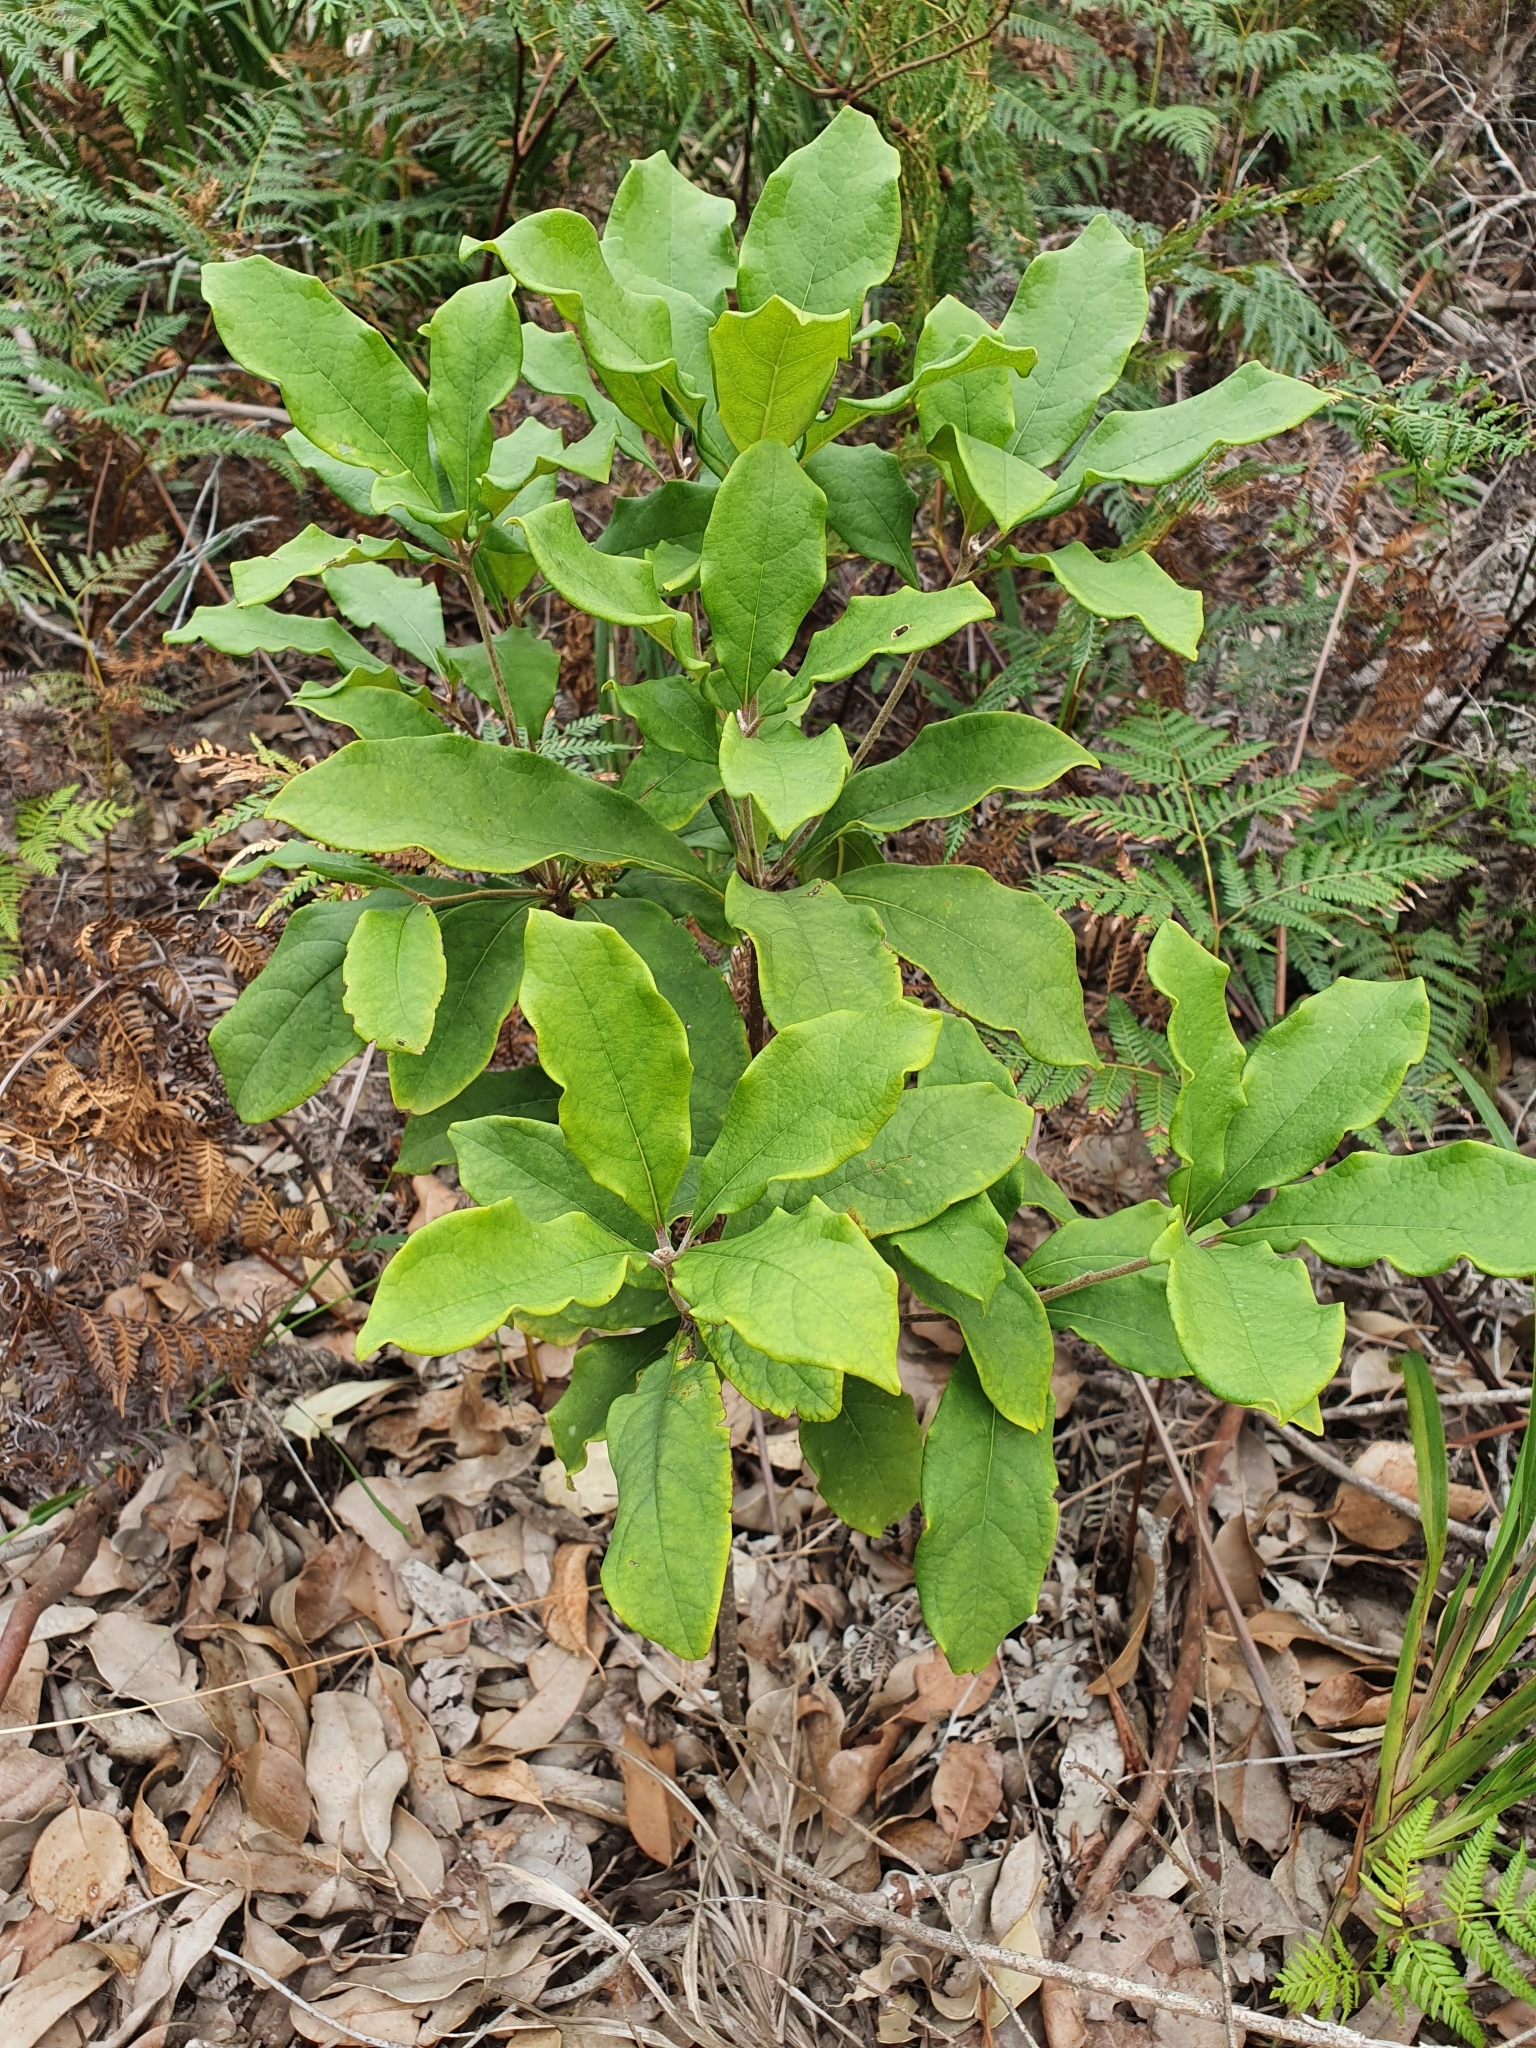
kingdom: Plantae
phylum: Tracheophyta
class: Magnoliopsida
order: Apiales
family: Pittosporaceae
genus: Pittosporum
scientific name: Pittosporum revolutum
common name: Brisbane-laurel
